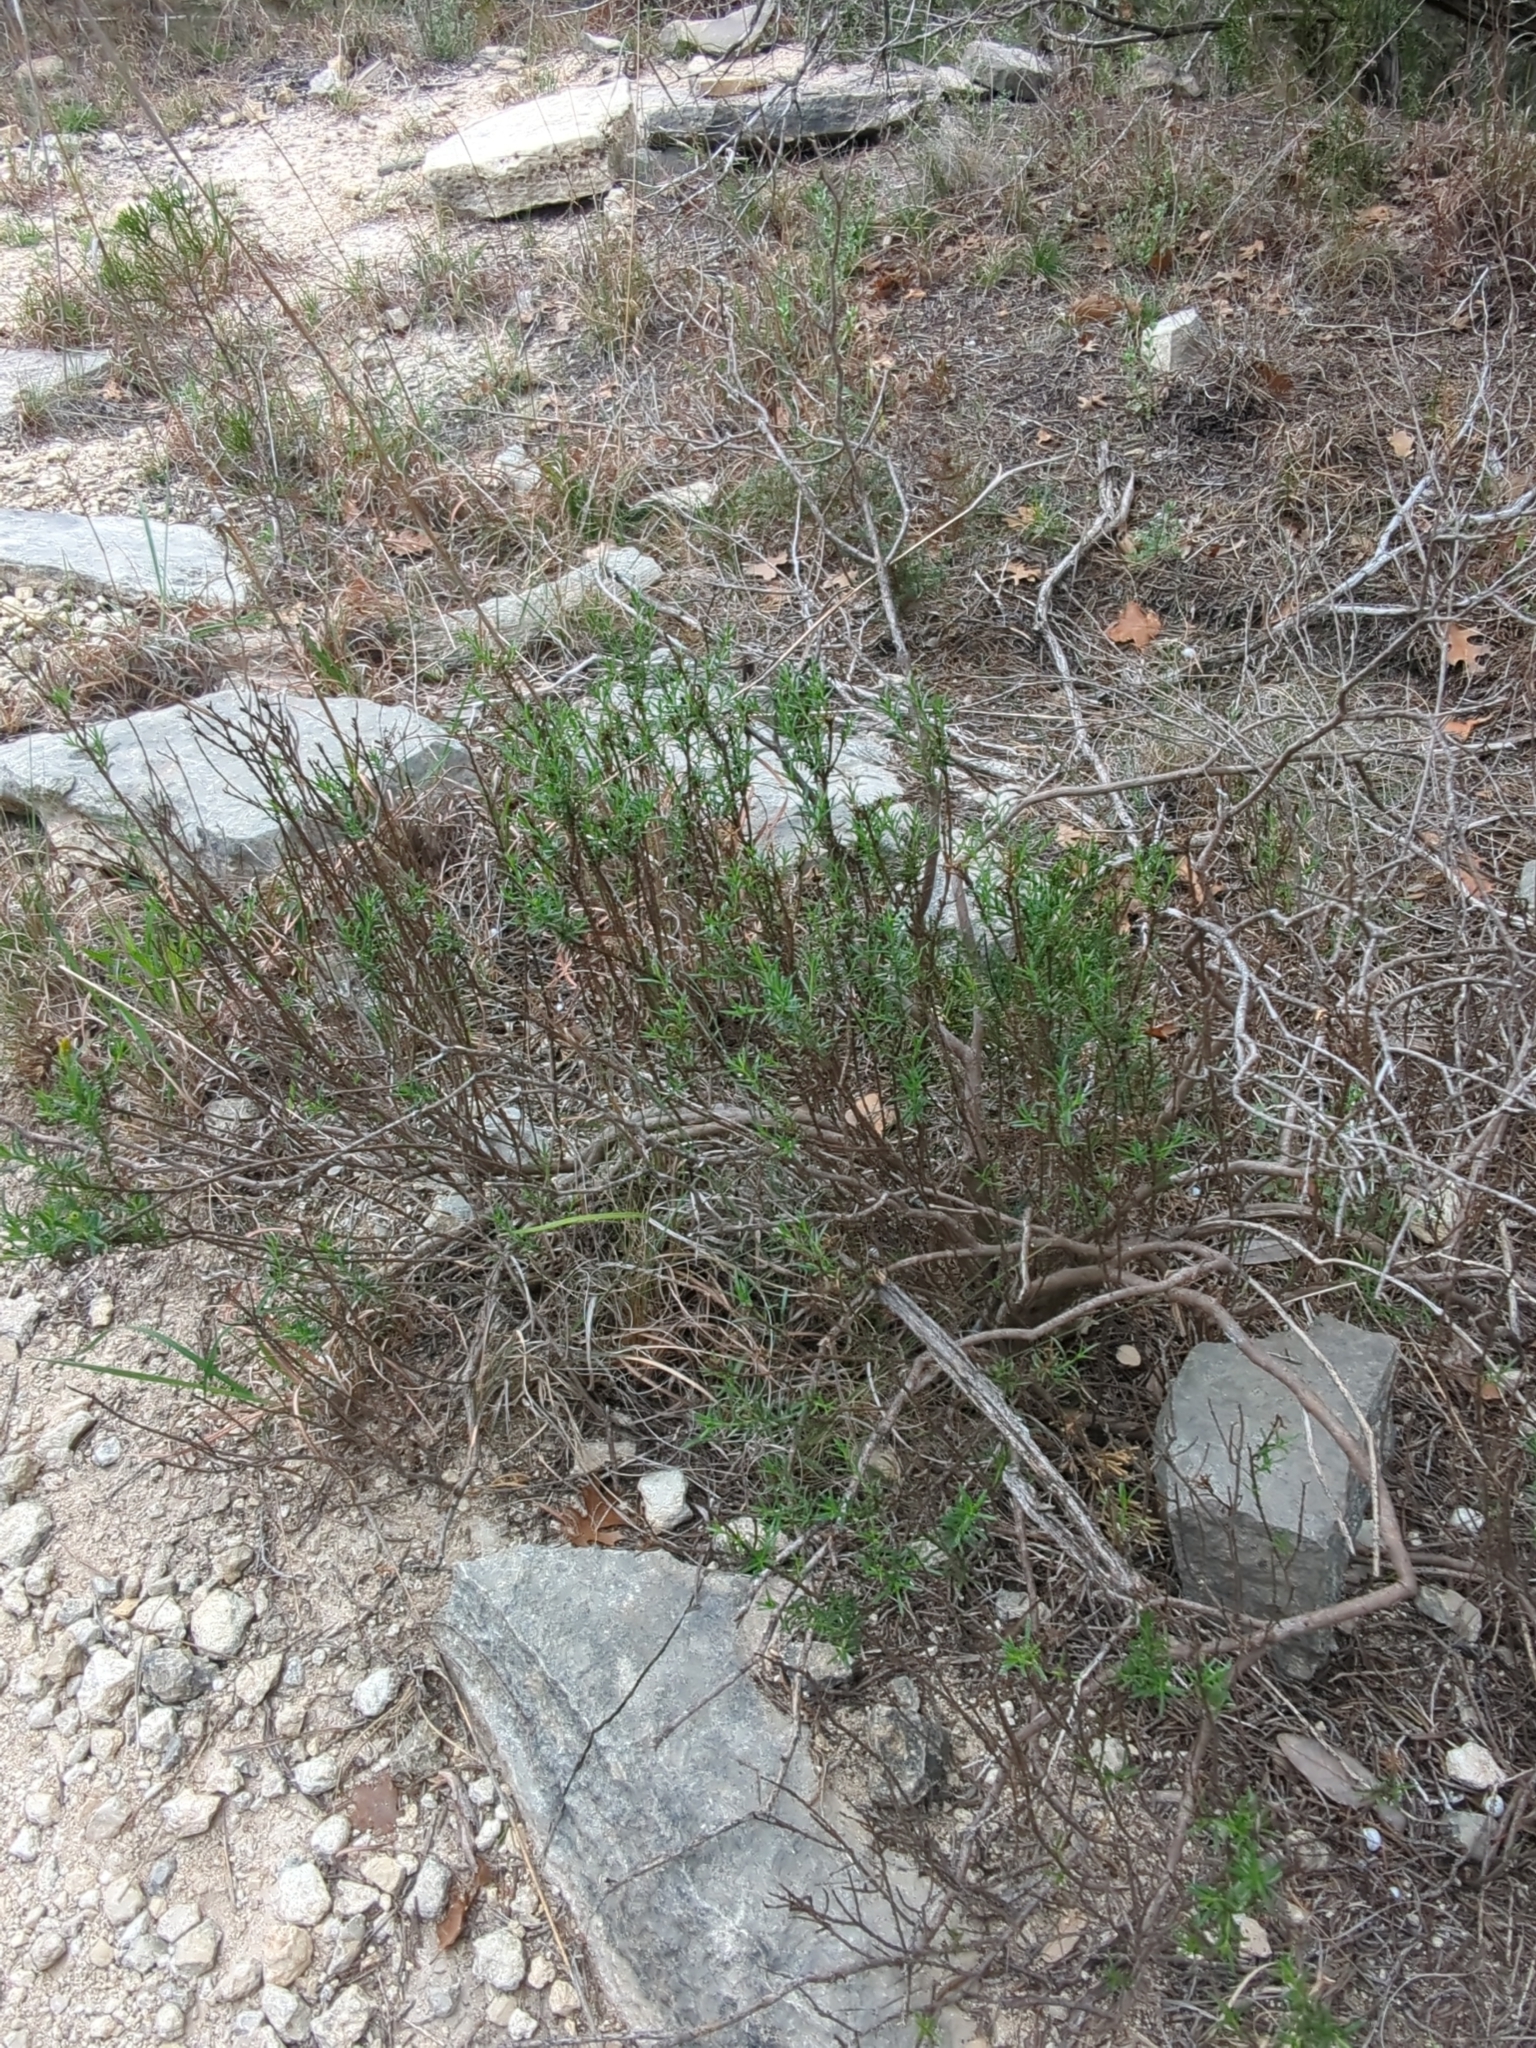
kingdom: Plantae
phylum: Tracheophyta
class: Magnoliopsida
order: Asterales
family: Asteraceae
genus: Chrysactinia
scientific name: Chrysactinia mexicana
